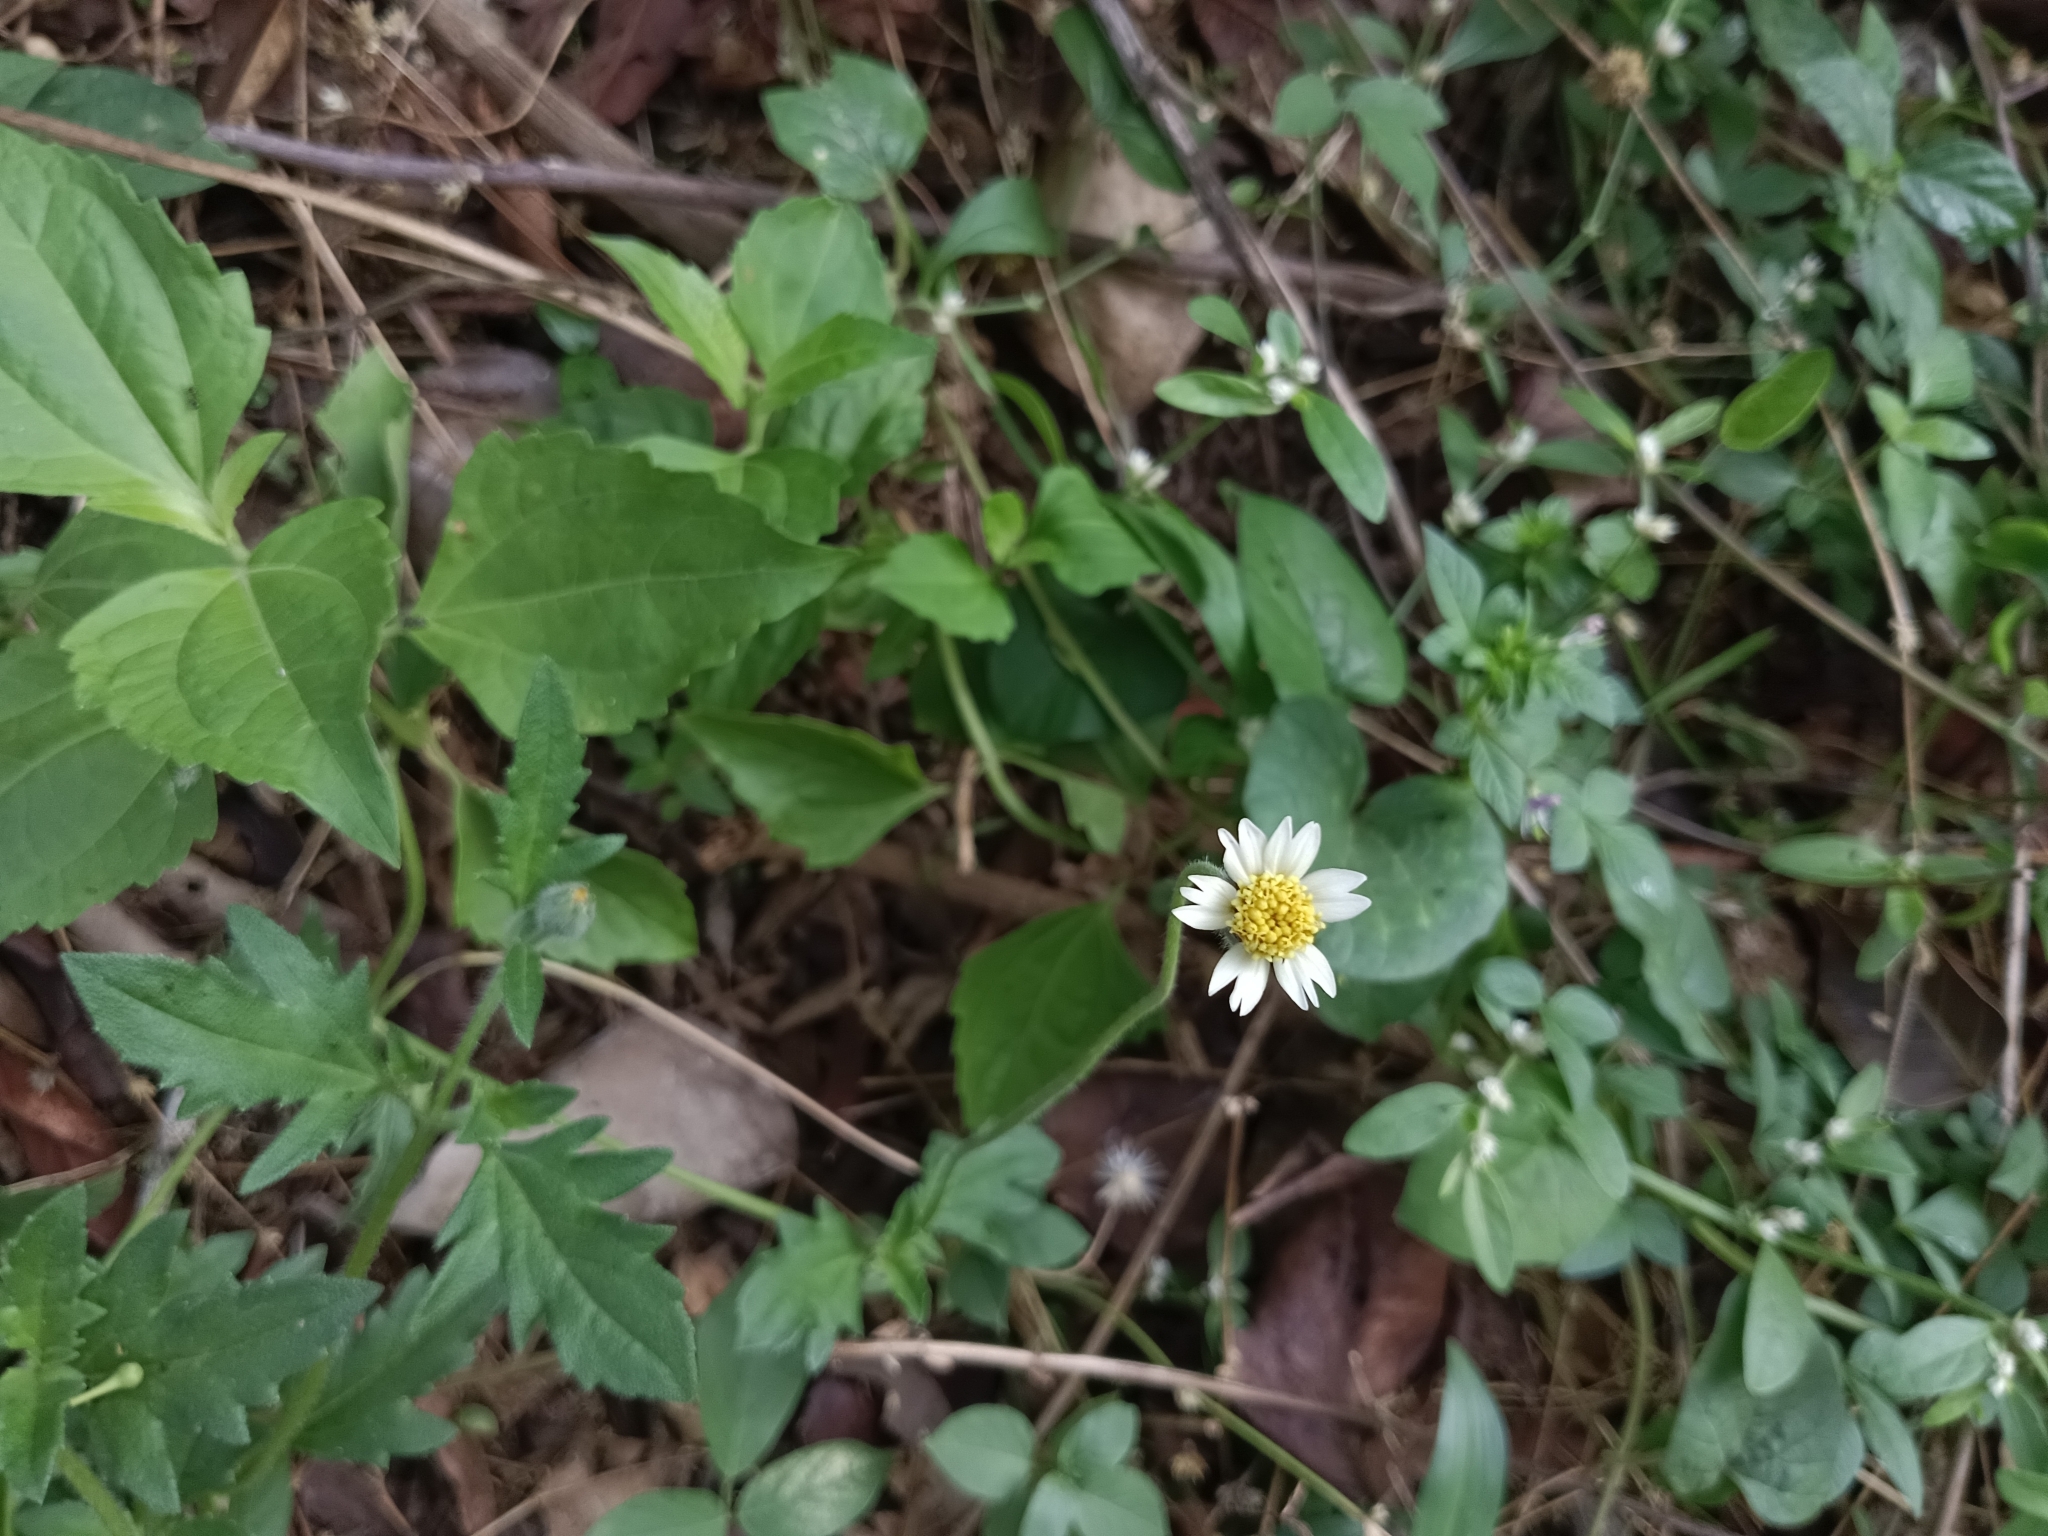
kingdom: Plantae
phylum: Tracheophyta
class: Magnoliopsida
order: Asterales
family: Asteraceae
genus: Tridax
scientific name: Tridax procumbens
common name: Coatbuttons
